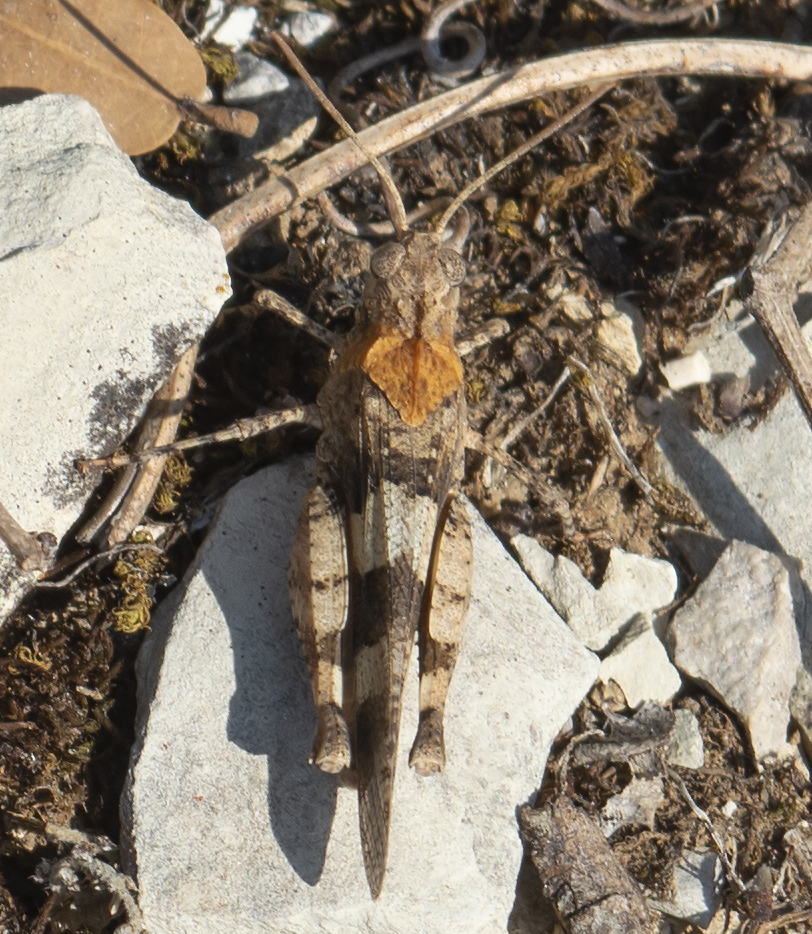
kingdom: Animalia
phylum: Arthropoda
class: Insecta
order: Orthoptera
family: Acrididae
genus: Oedipoda
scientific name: Oedipoda caerulescens
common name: Blue-winged grasshopper
